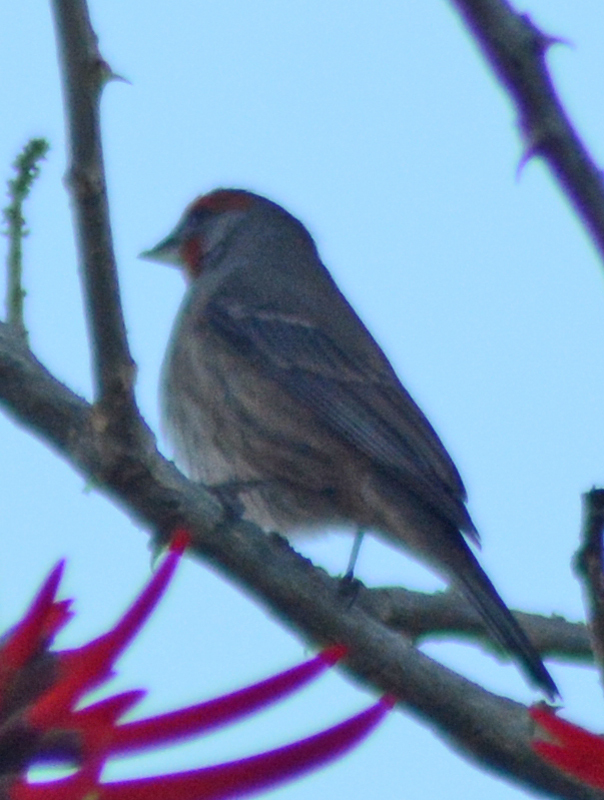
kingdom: Animalia
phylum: Chordata
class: Aves
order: Passeriformes
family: Fringillidae
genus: Haemorhous
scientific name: Haemorhous mexicanus
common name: House finch
